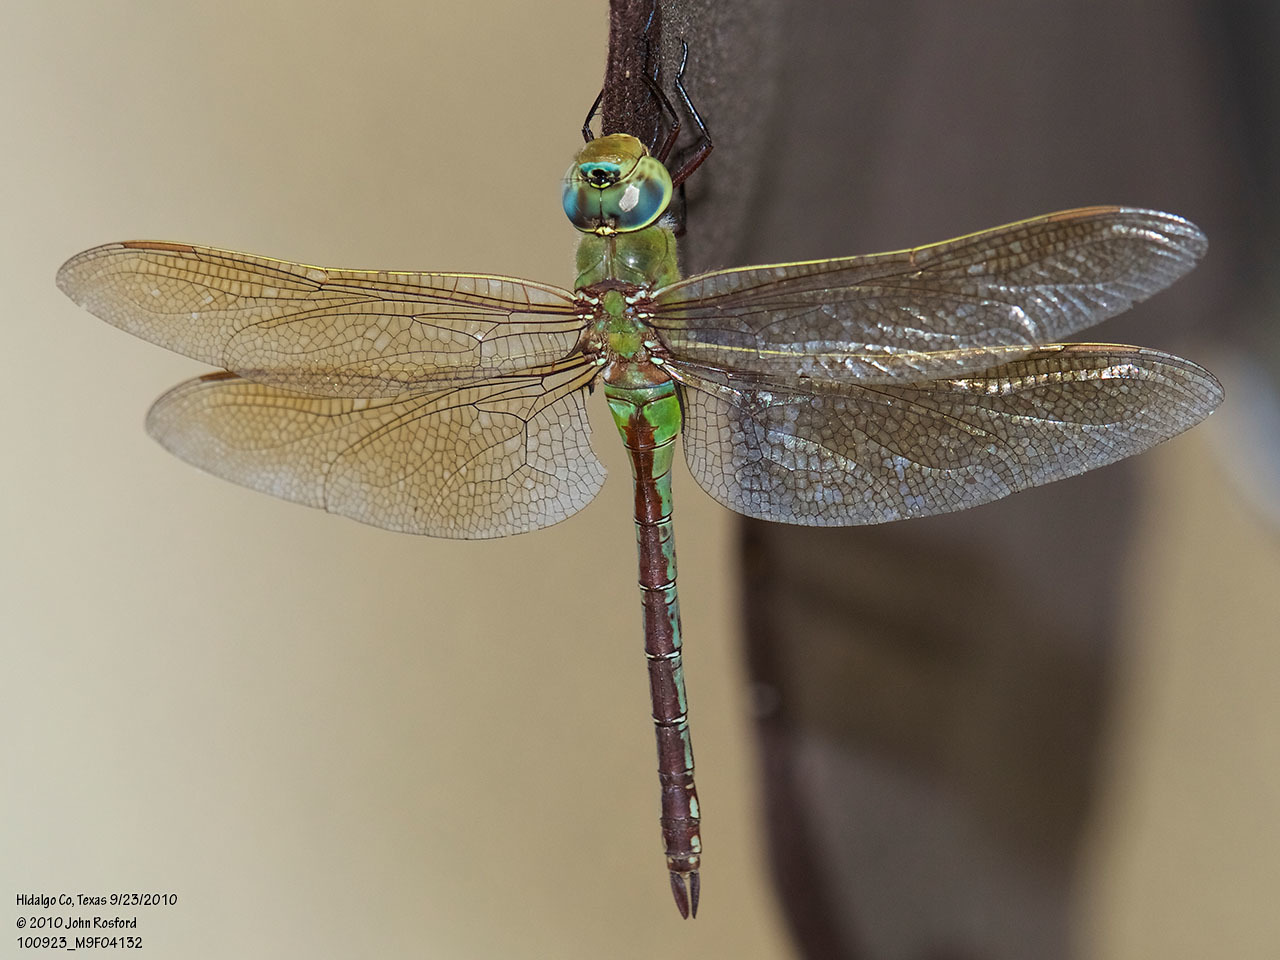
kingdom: Animalia
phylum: Arthropoda
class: Insecta
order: Odonata
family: Aeshnidae
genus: Anax
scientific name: Anax junius
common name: Common green darner
